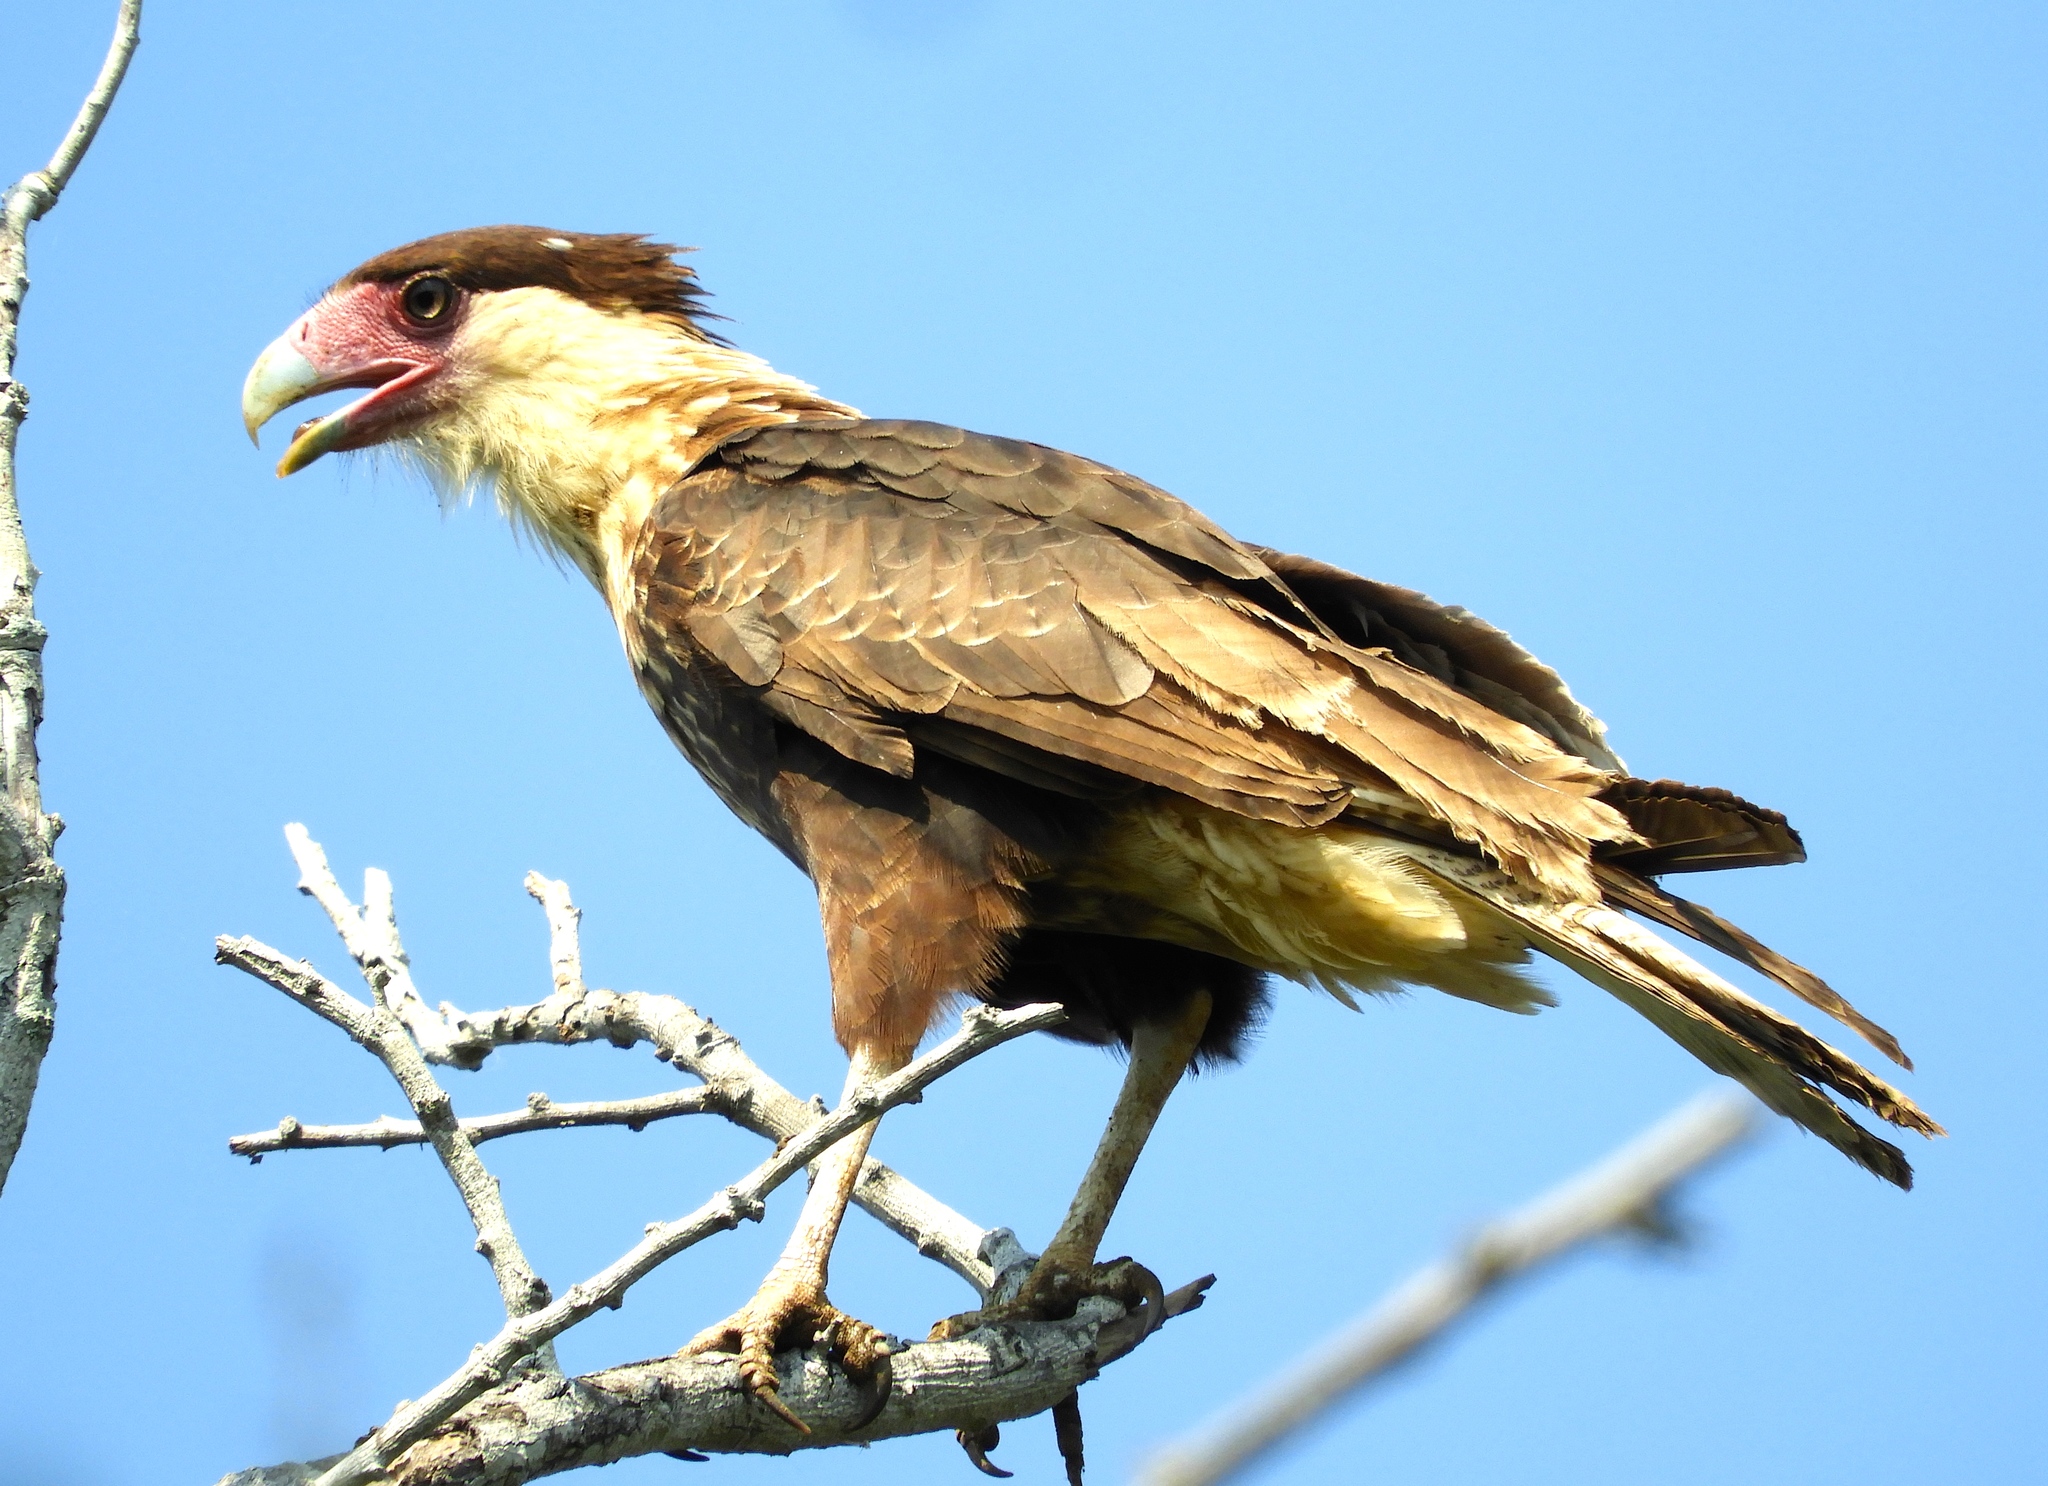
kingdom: Animalia
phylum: Chordata
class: Aves
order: Falconiformes
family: Falconidae
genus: Caracara
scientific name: Caracara plancus
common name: Southern caracara
